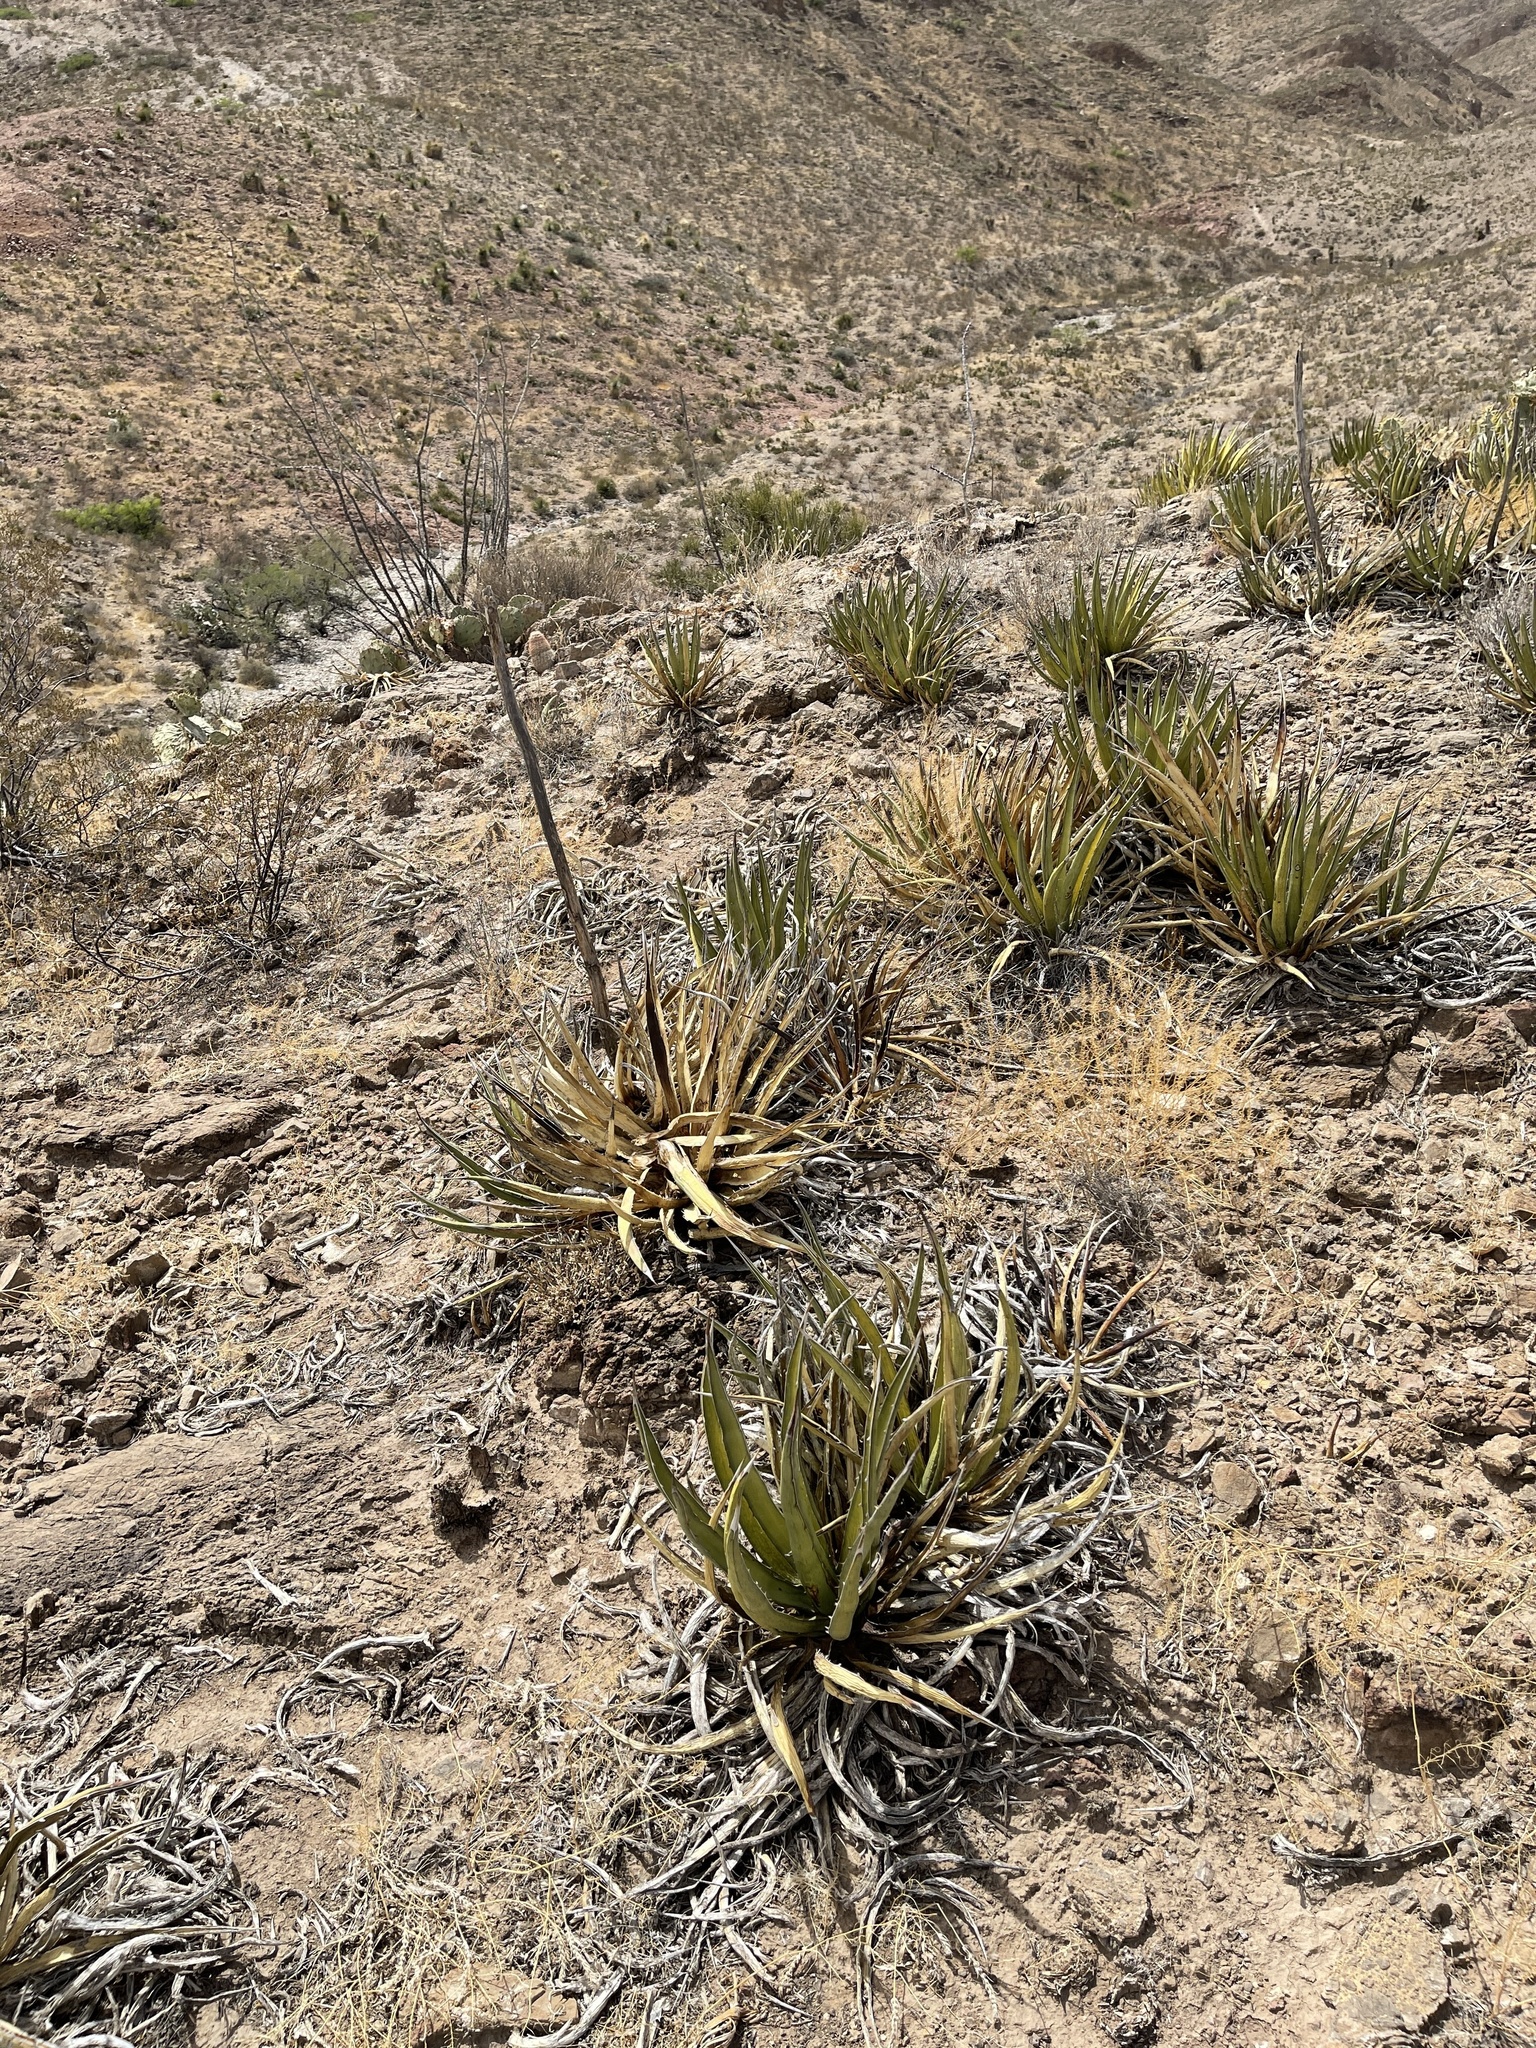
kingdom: Plantae
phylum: Tracheophyta
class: Liliopsida
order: Asparagales
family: Asparagaceae
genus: Agave
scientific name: Agave lechuguilla
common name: Lecheguilla agave
